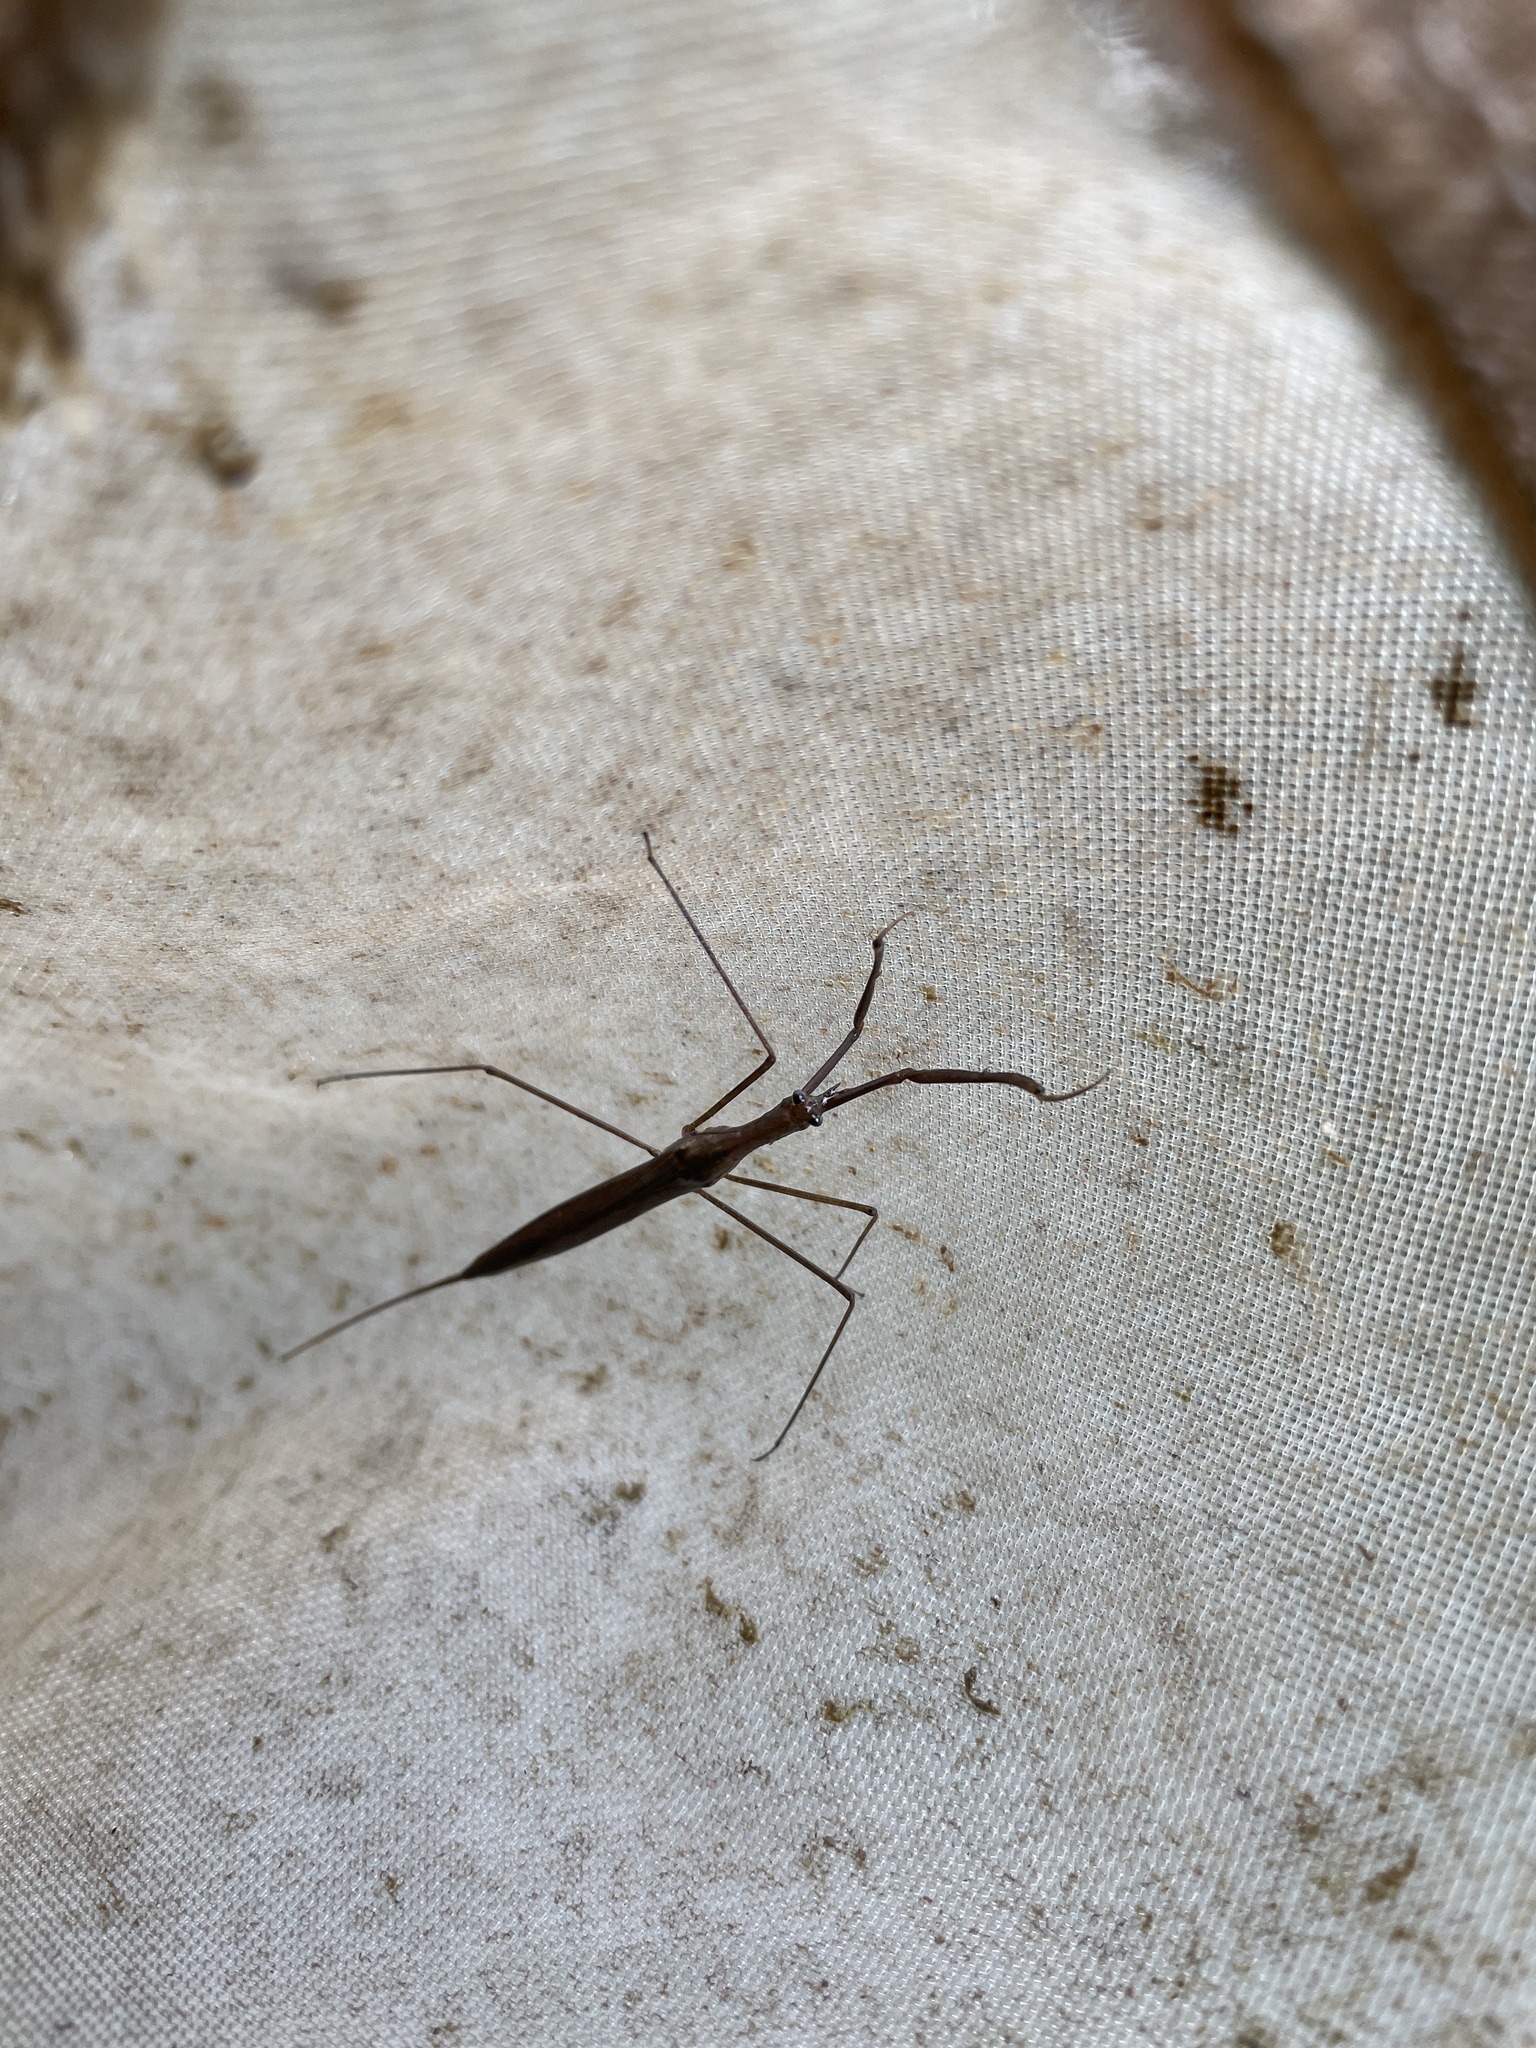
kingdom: Animalia
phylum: Arthropoda
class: Insecta
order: Hemiptera
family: Nepidae
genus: Ranatra
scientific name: Ranatra
